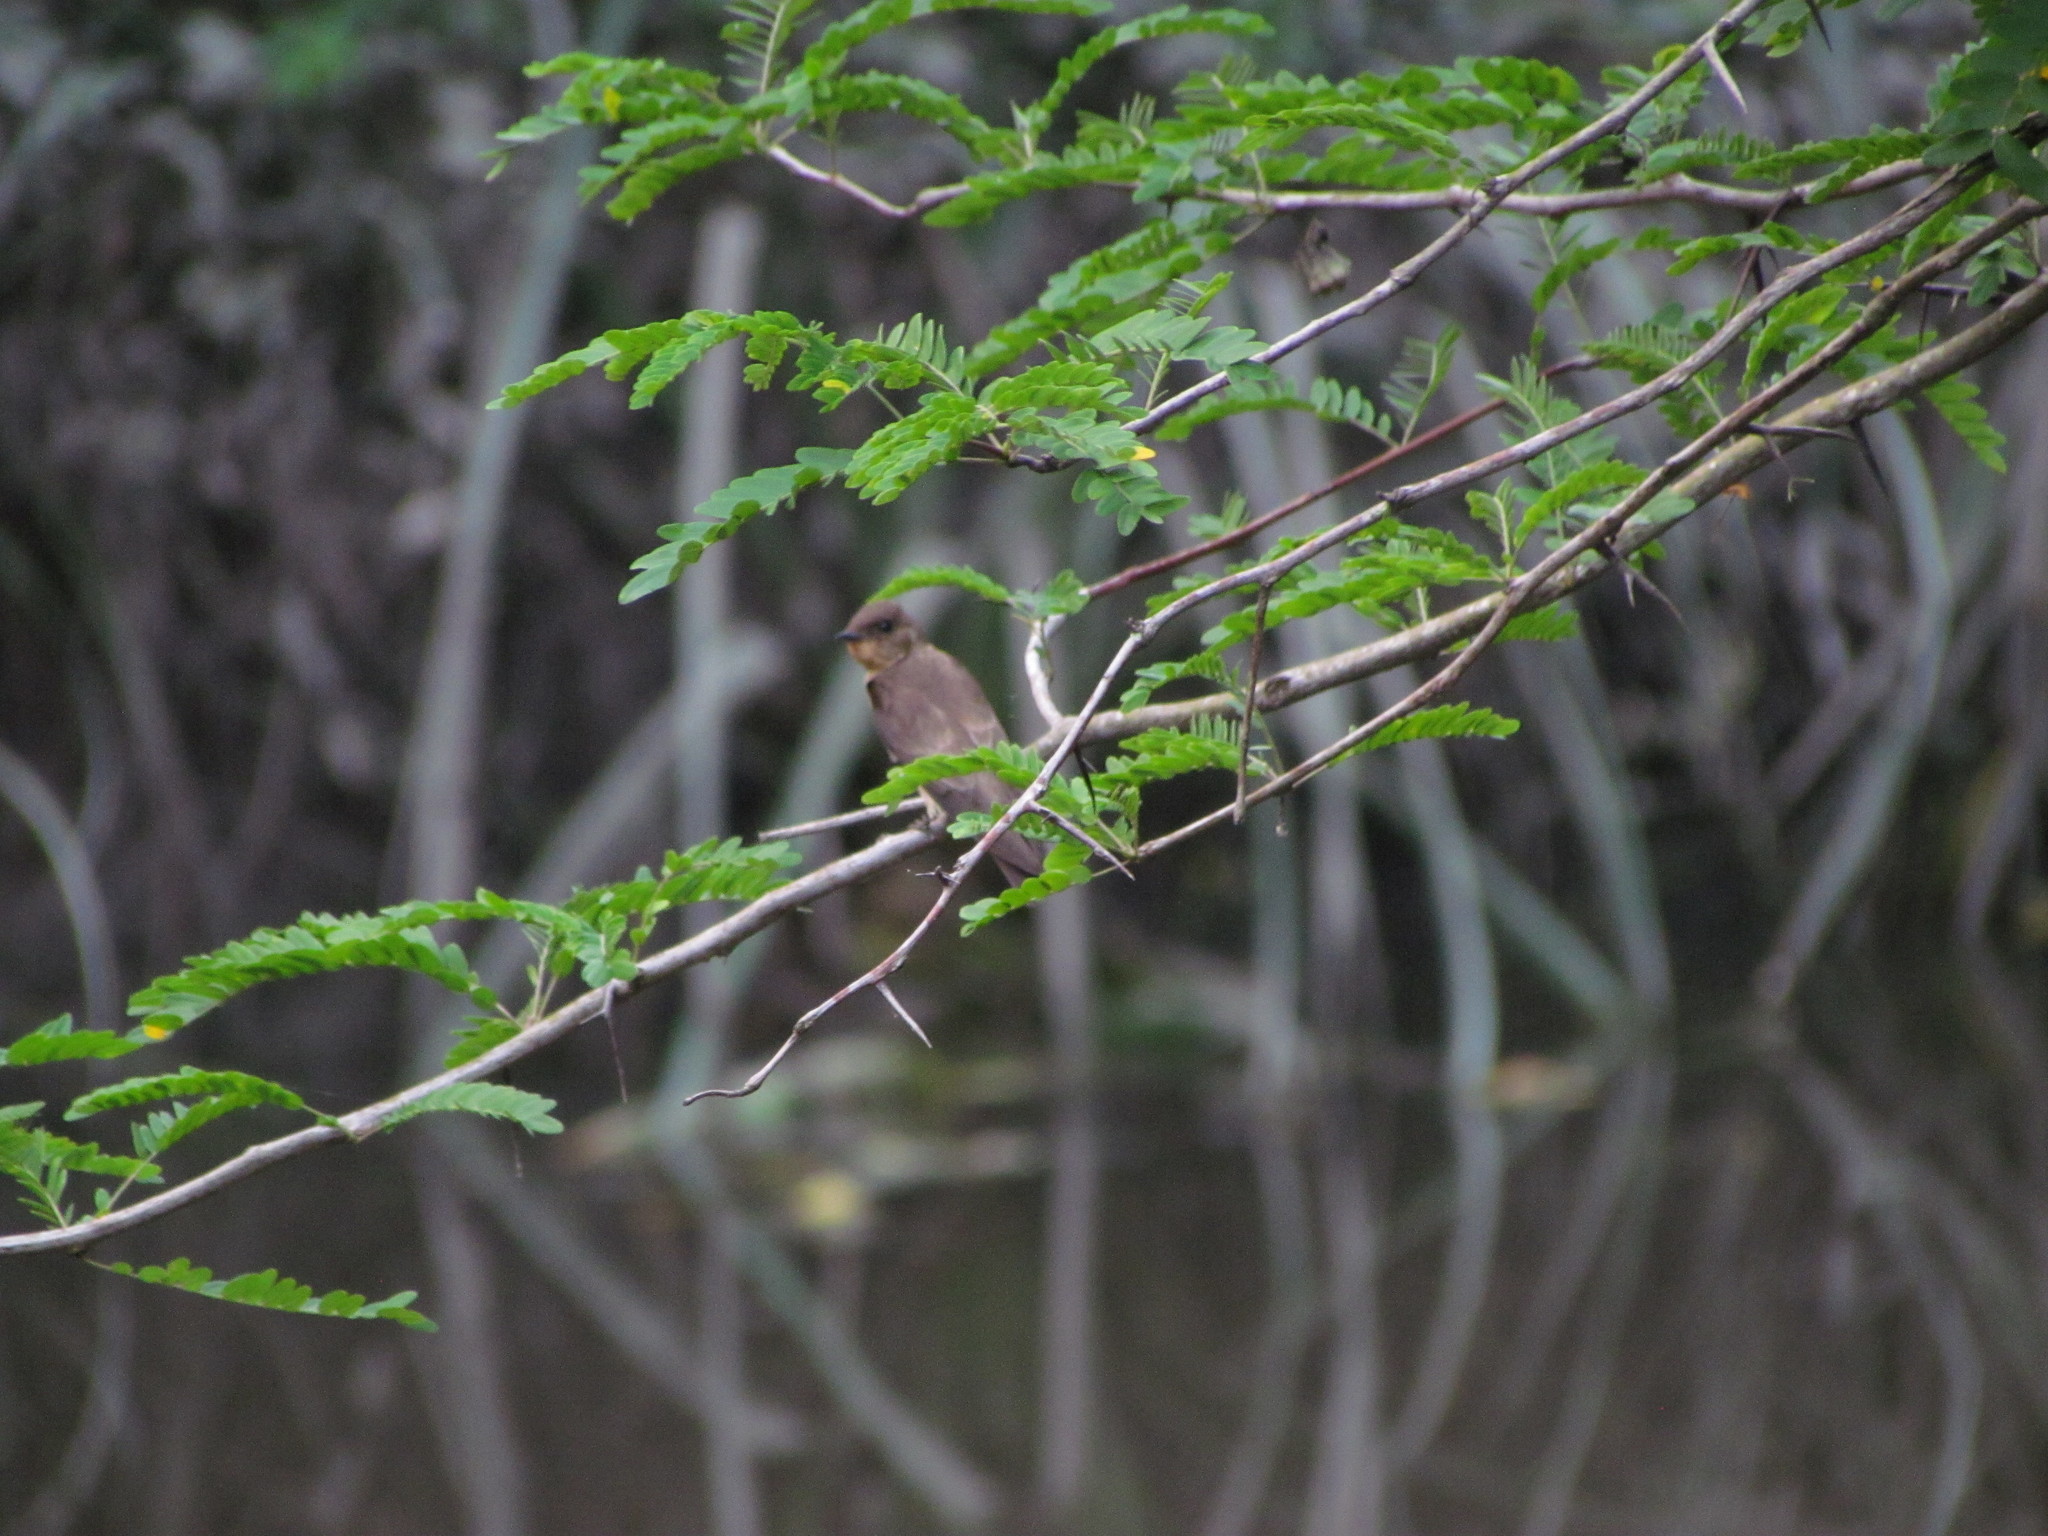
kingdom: Animalia
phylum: Chordata
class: Aves
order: Passeriformes
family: Hirundinidae
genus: Stelgidopteryx
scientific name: Stelgidopteryx ruficollis
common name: Southern rough-winged swallow
